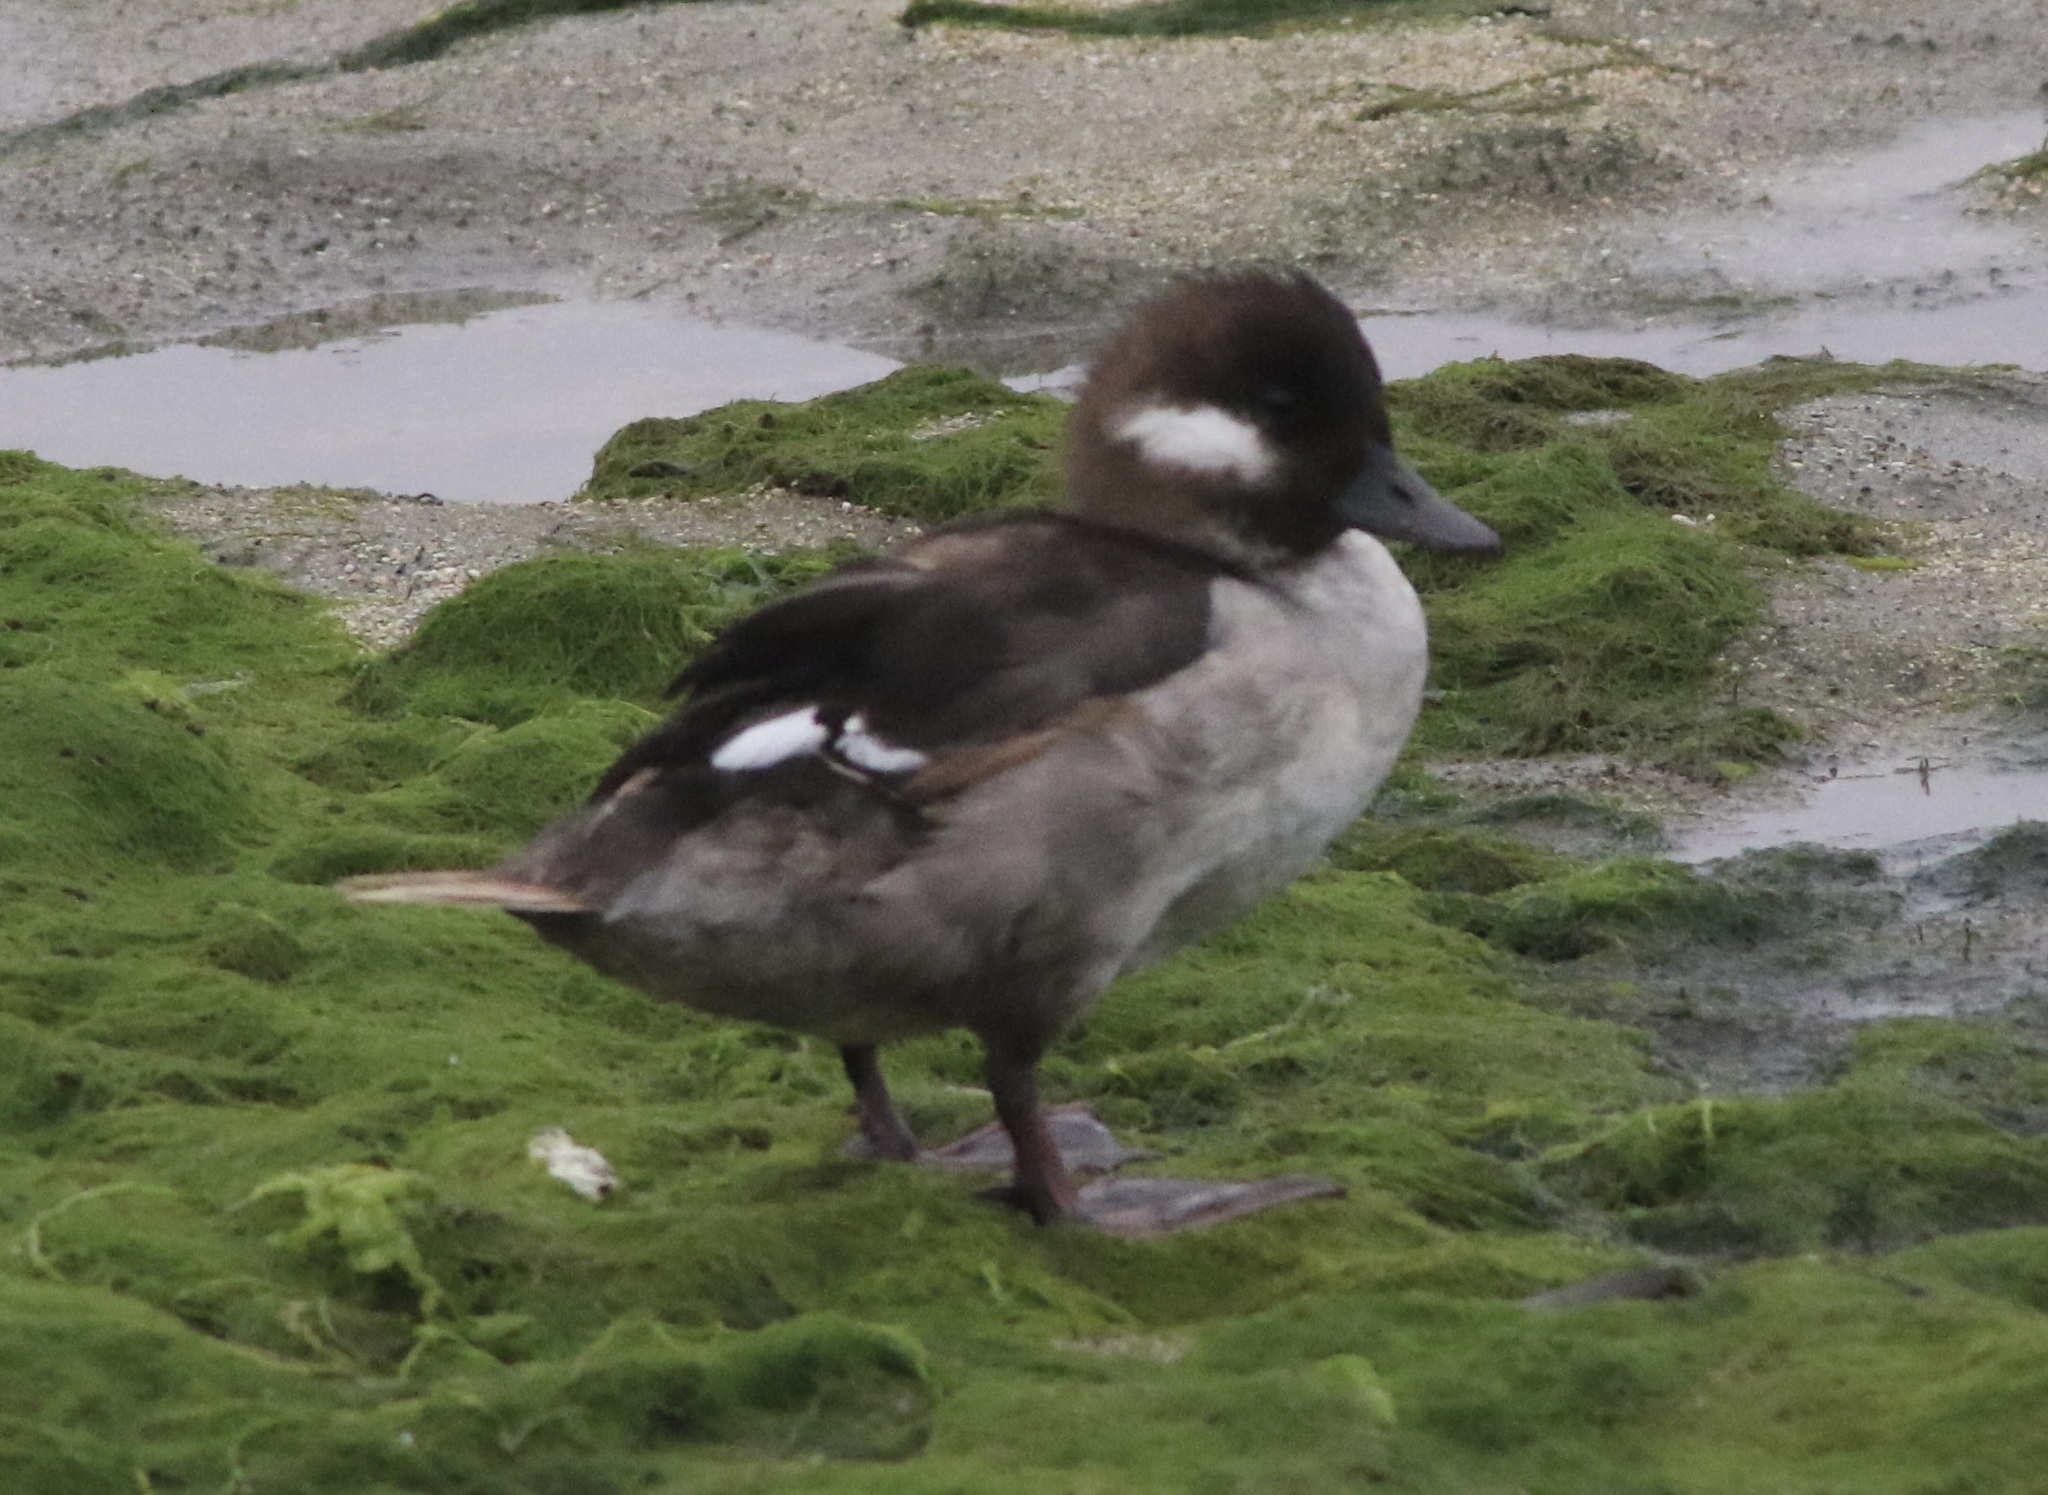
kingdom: Animalia
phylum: Chordata
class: Aves
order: Anseriformes
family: Anatidae
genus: Bucephala
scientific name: Bucephala albeola
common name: Bufflehead
